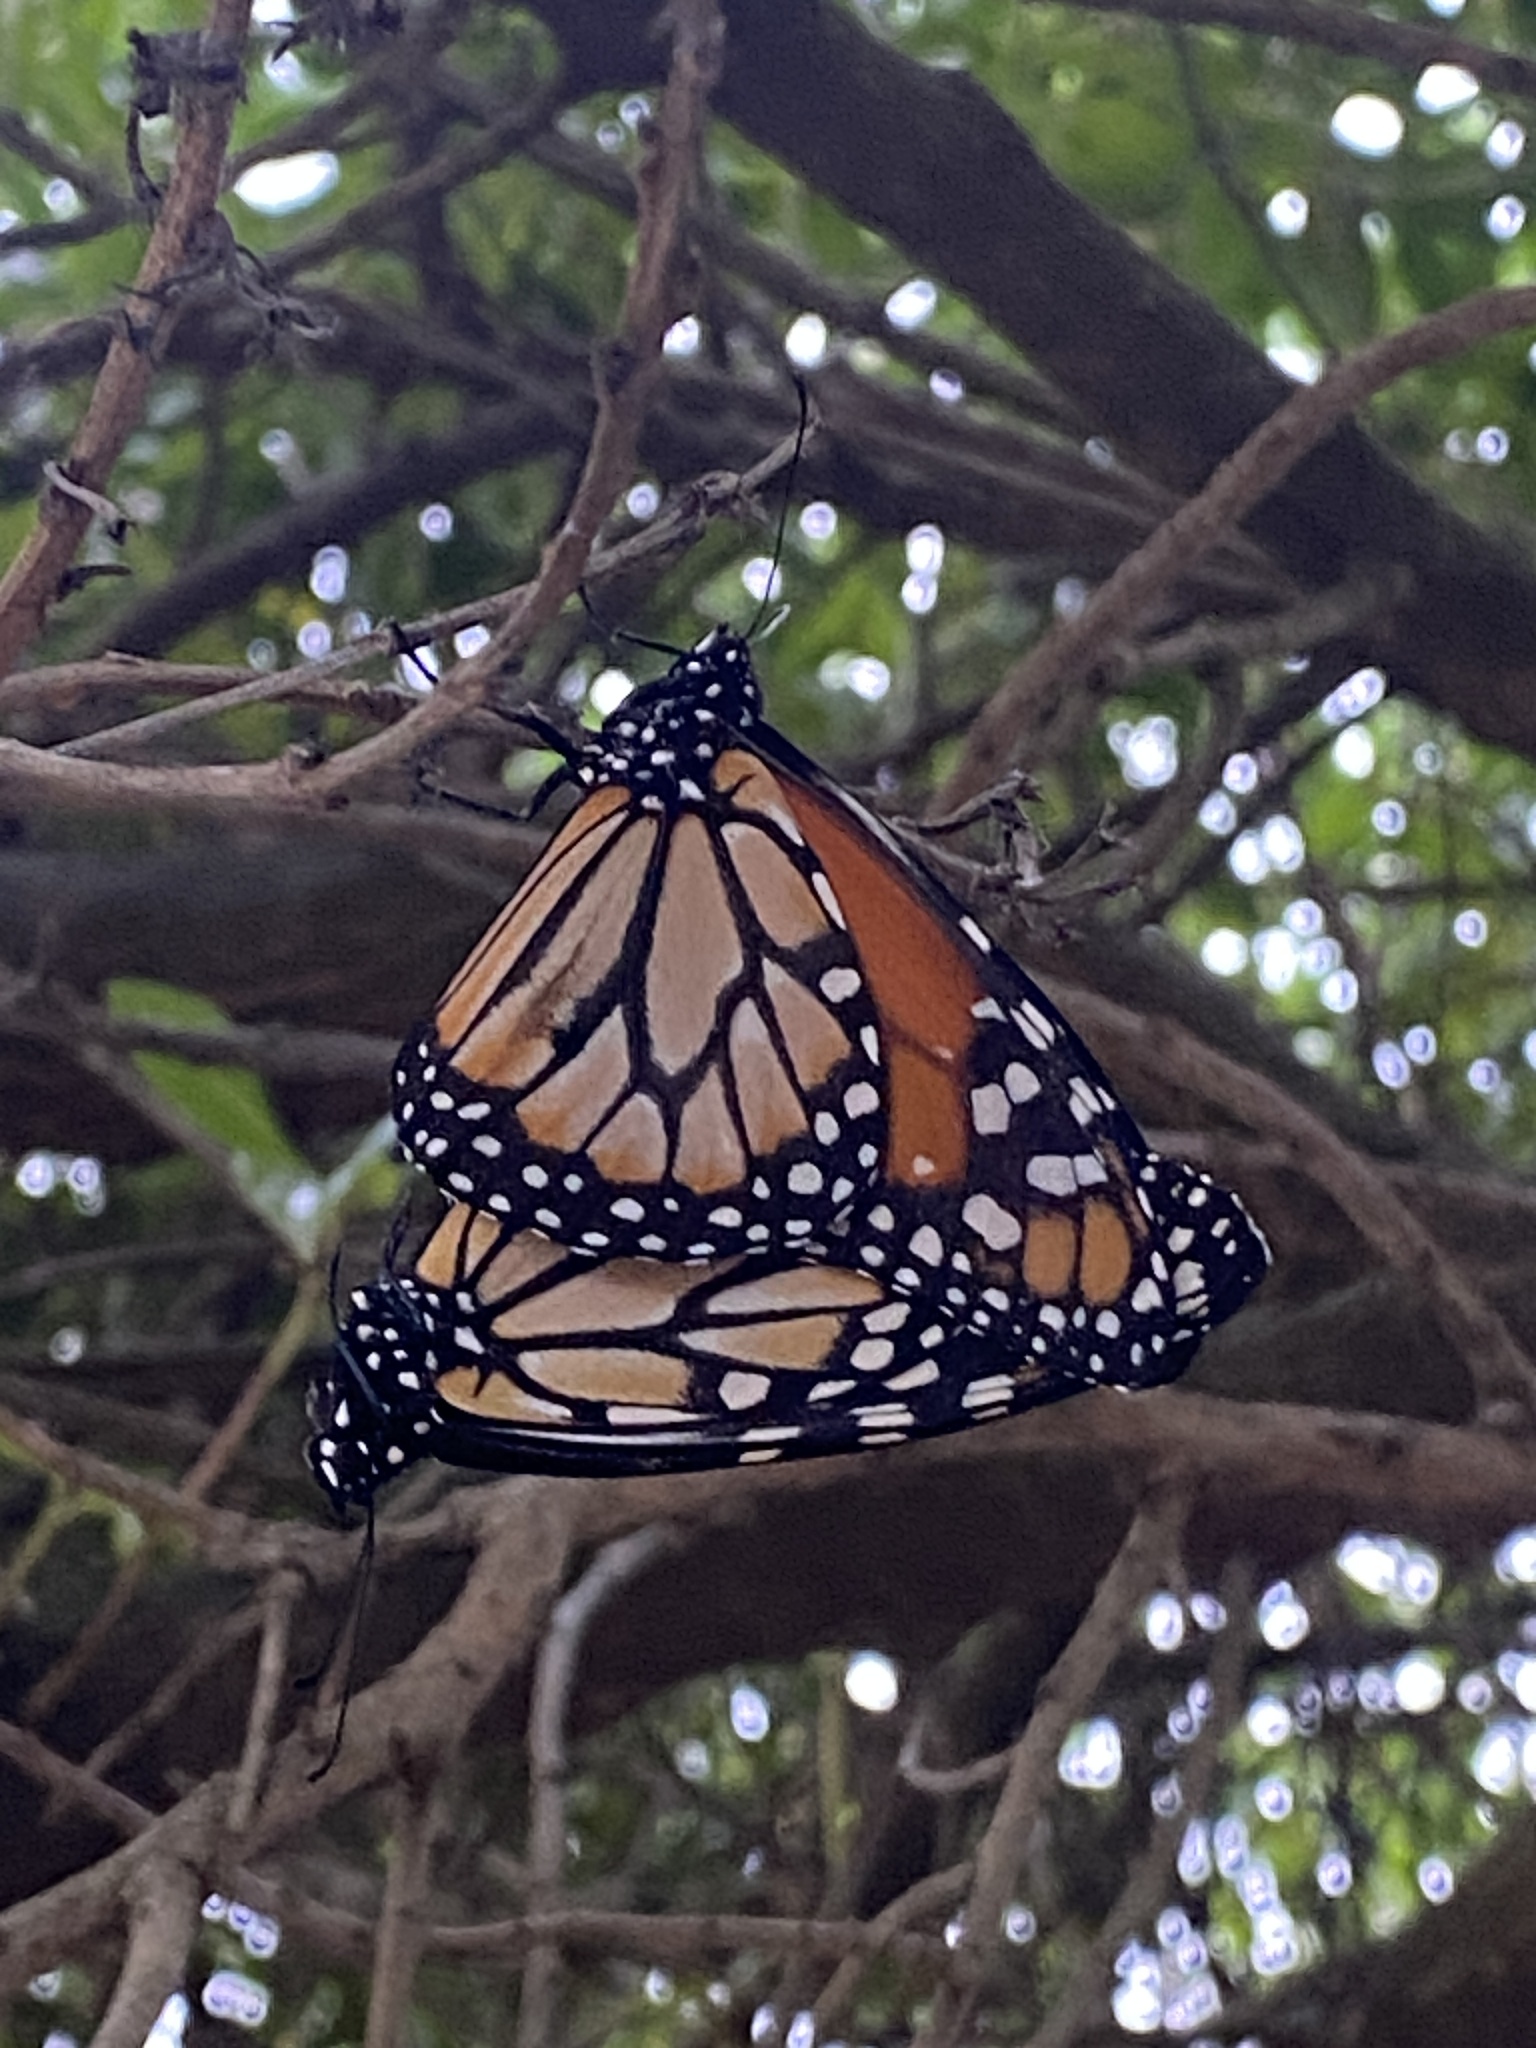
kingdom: Animalia
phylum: Arthropoda
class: Insecta
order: Lepidoptera
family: Nymphalidae
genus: Danaus
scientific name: Danaus erippus
